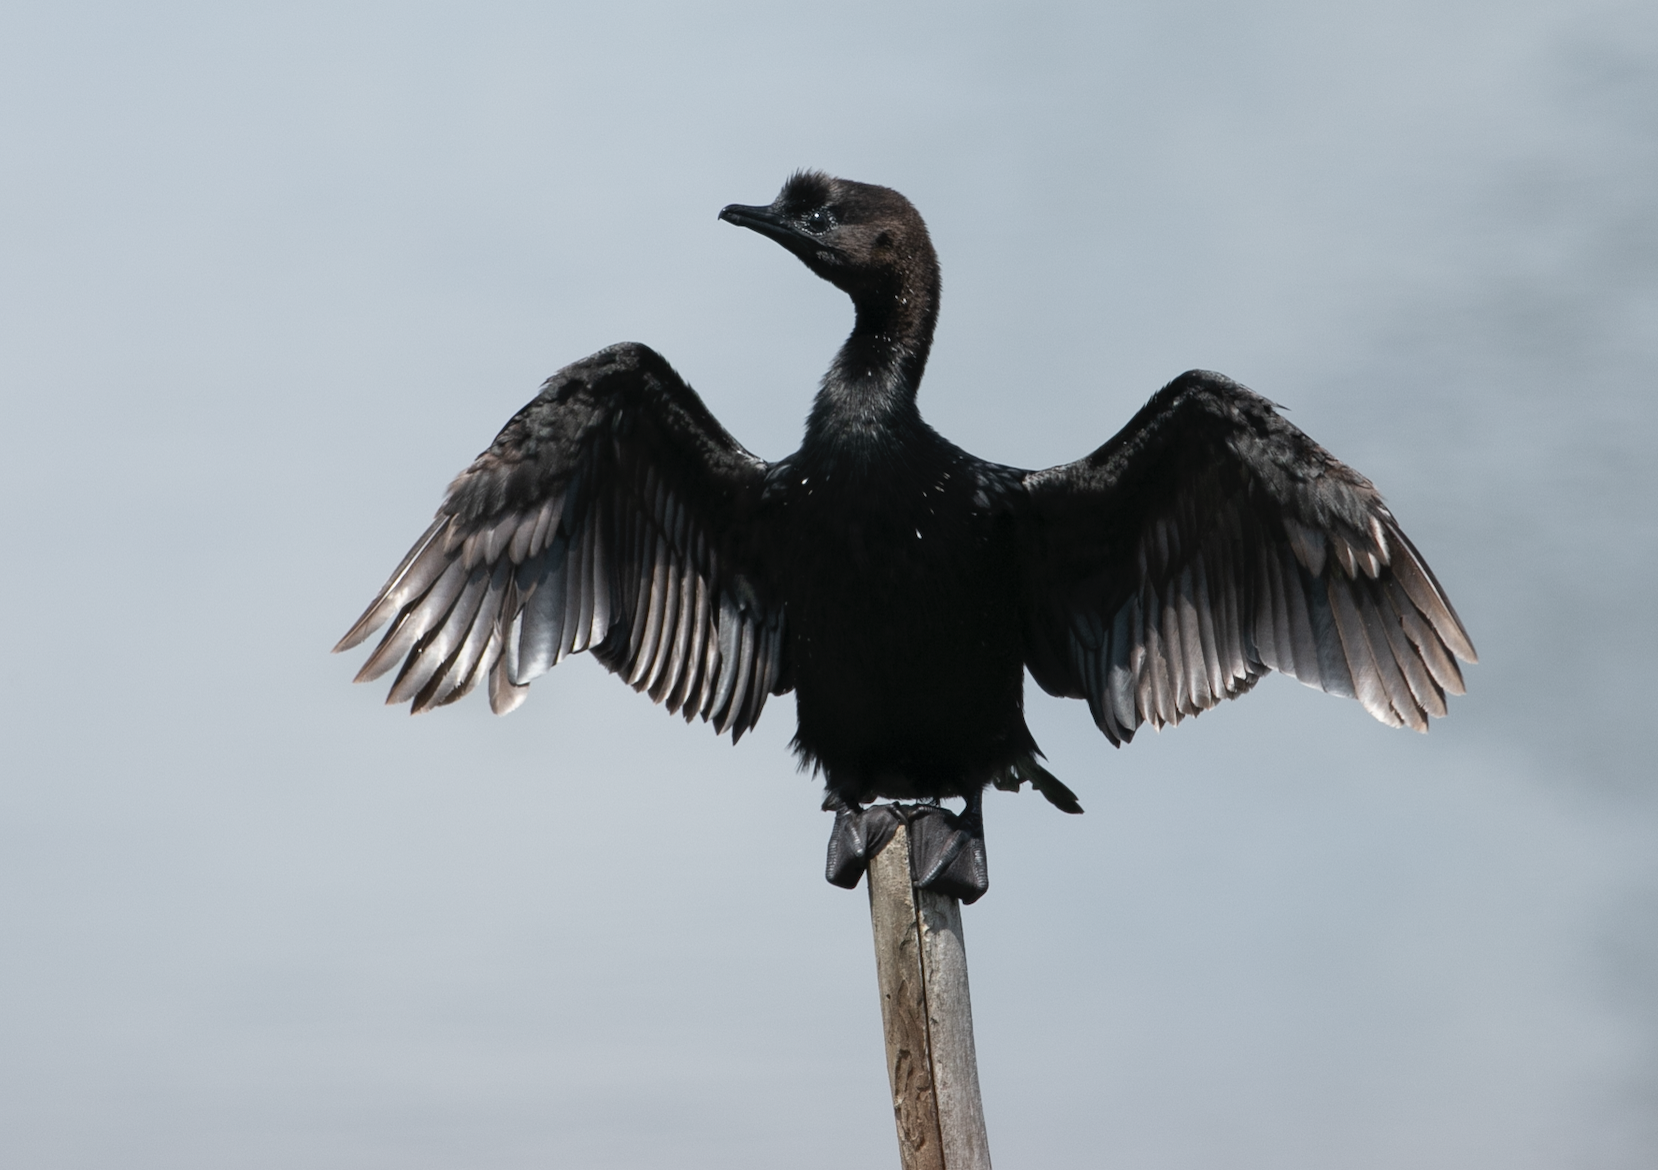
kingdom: Animalia
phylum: Chordata
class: Aves
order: Suliformes
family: Phalacrocoracidae
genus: Microcarbo
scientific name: Microcarbo pygmaeus
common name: Pygmy cormorant
